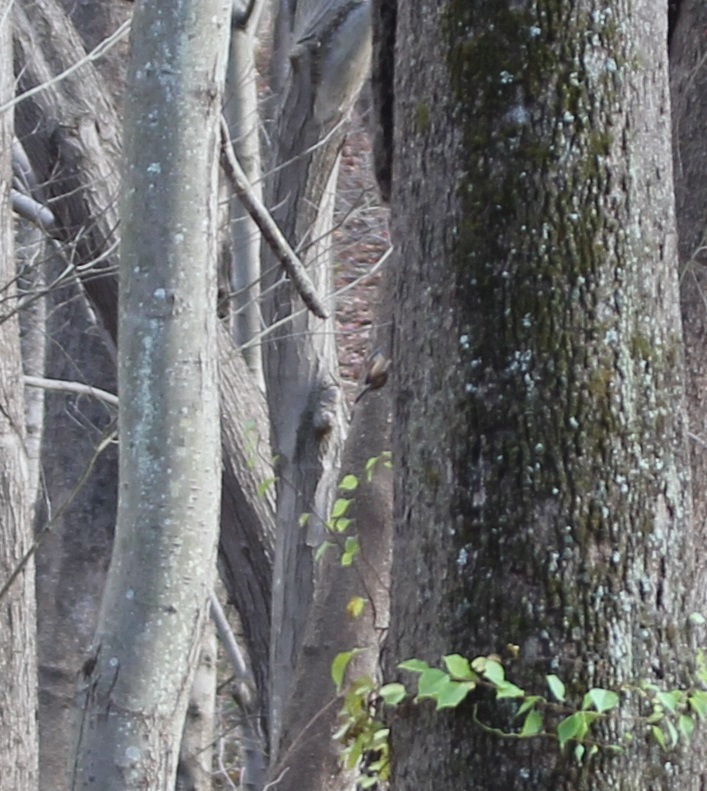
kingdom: Animalia
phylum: Chordata
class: Aves
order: Passeriformes
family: Troglodytidae
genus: Thryothorus
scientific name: Thryothorus ludovicianus
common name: Carolina wren
